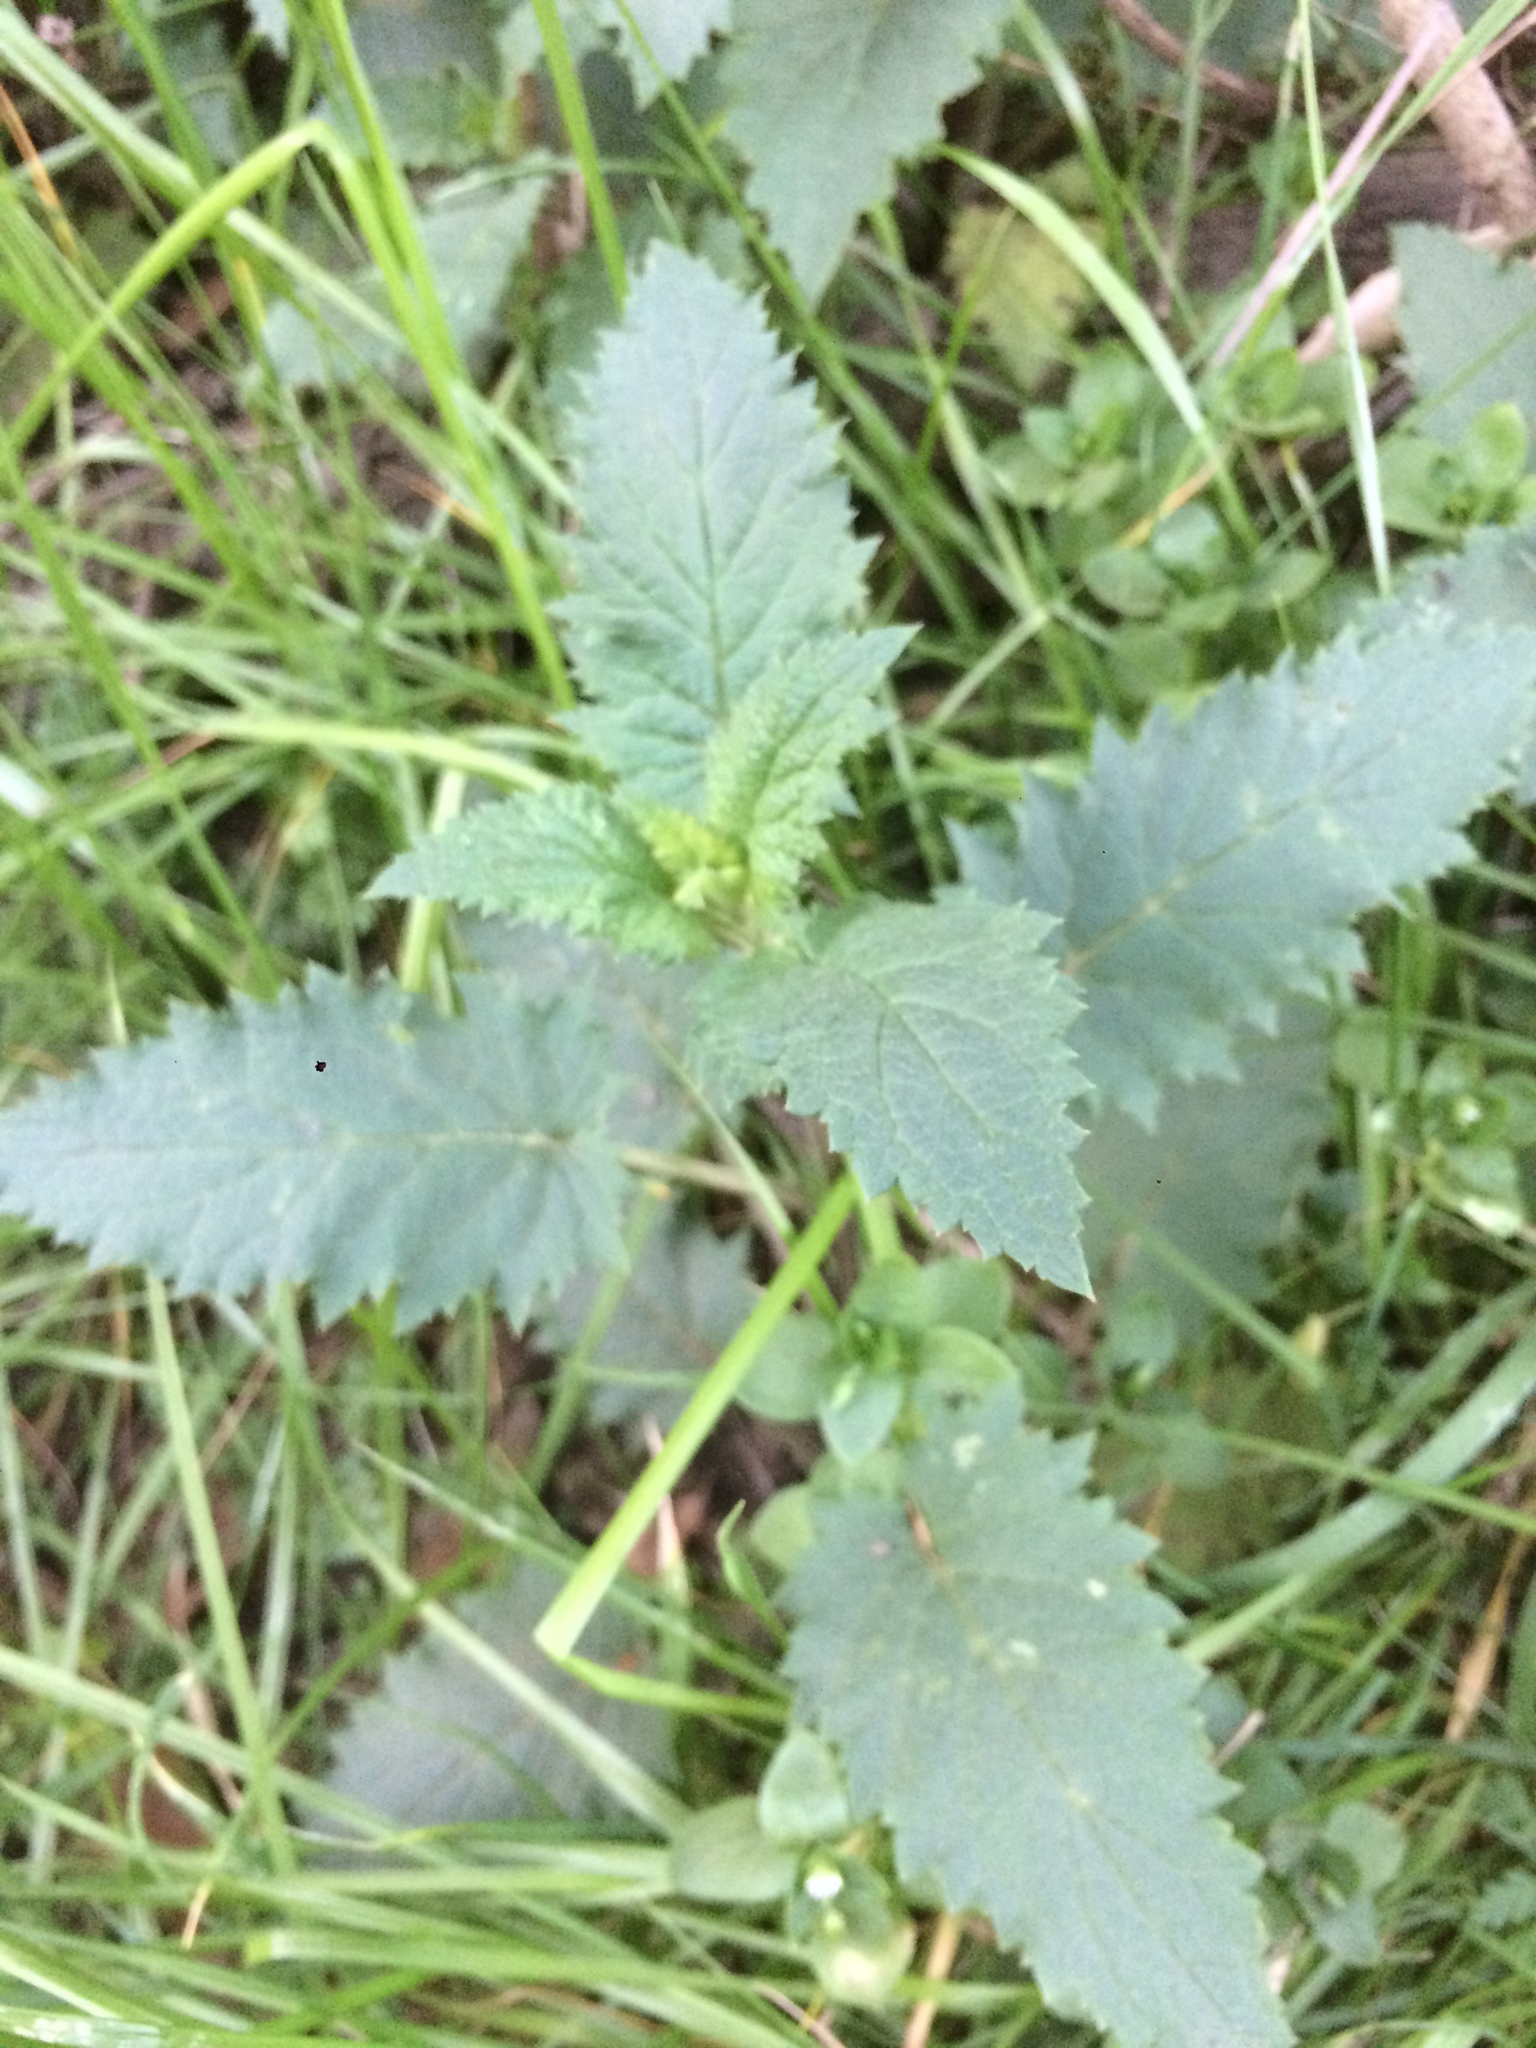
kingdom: Plantae
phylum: Tracheophyta
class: Magnoliopsida
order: Lamiales
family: Scrophulariaceae
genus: Scrophularia
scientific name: Scrophularia californica
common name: California figwort
